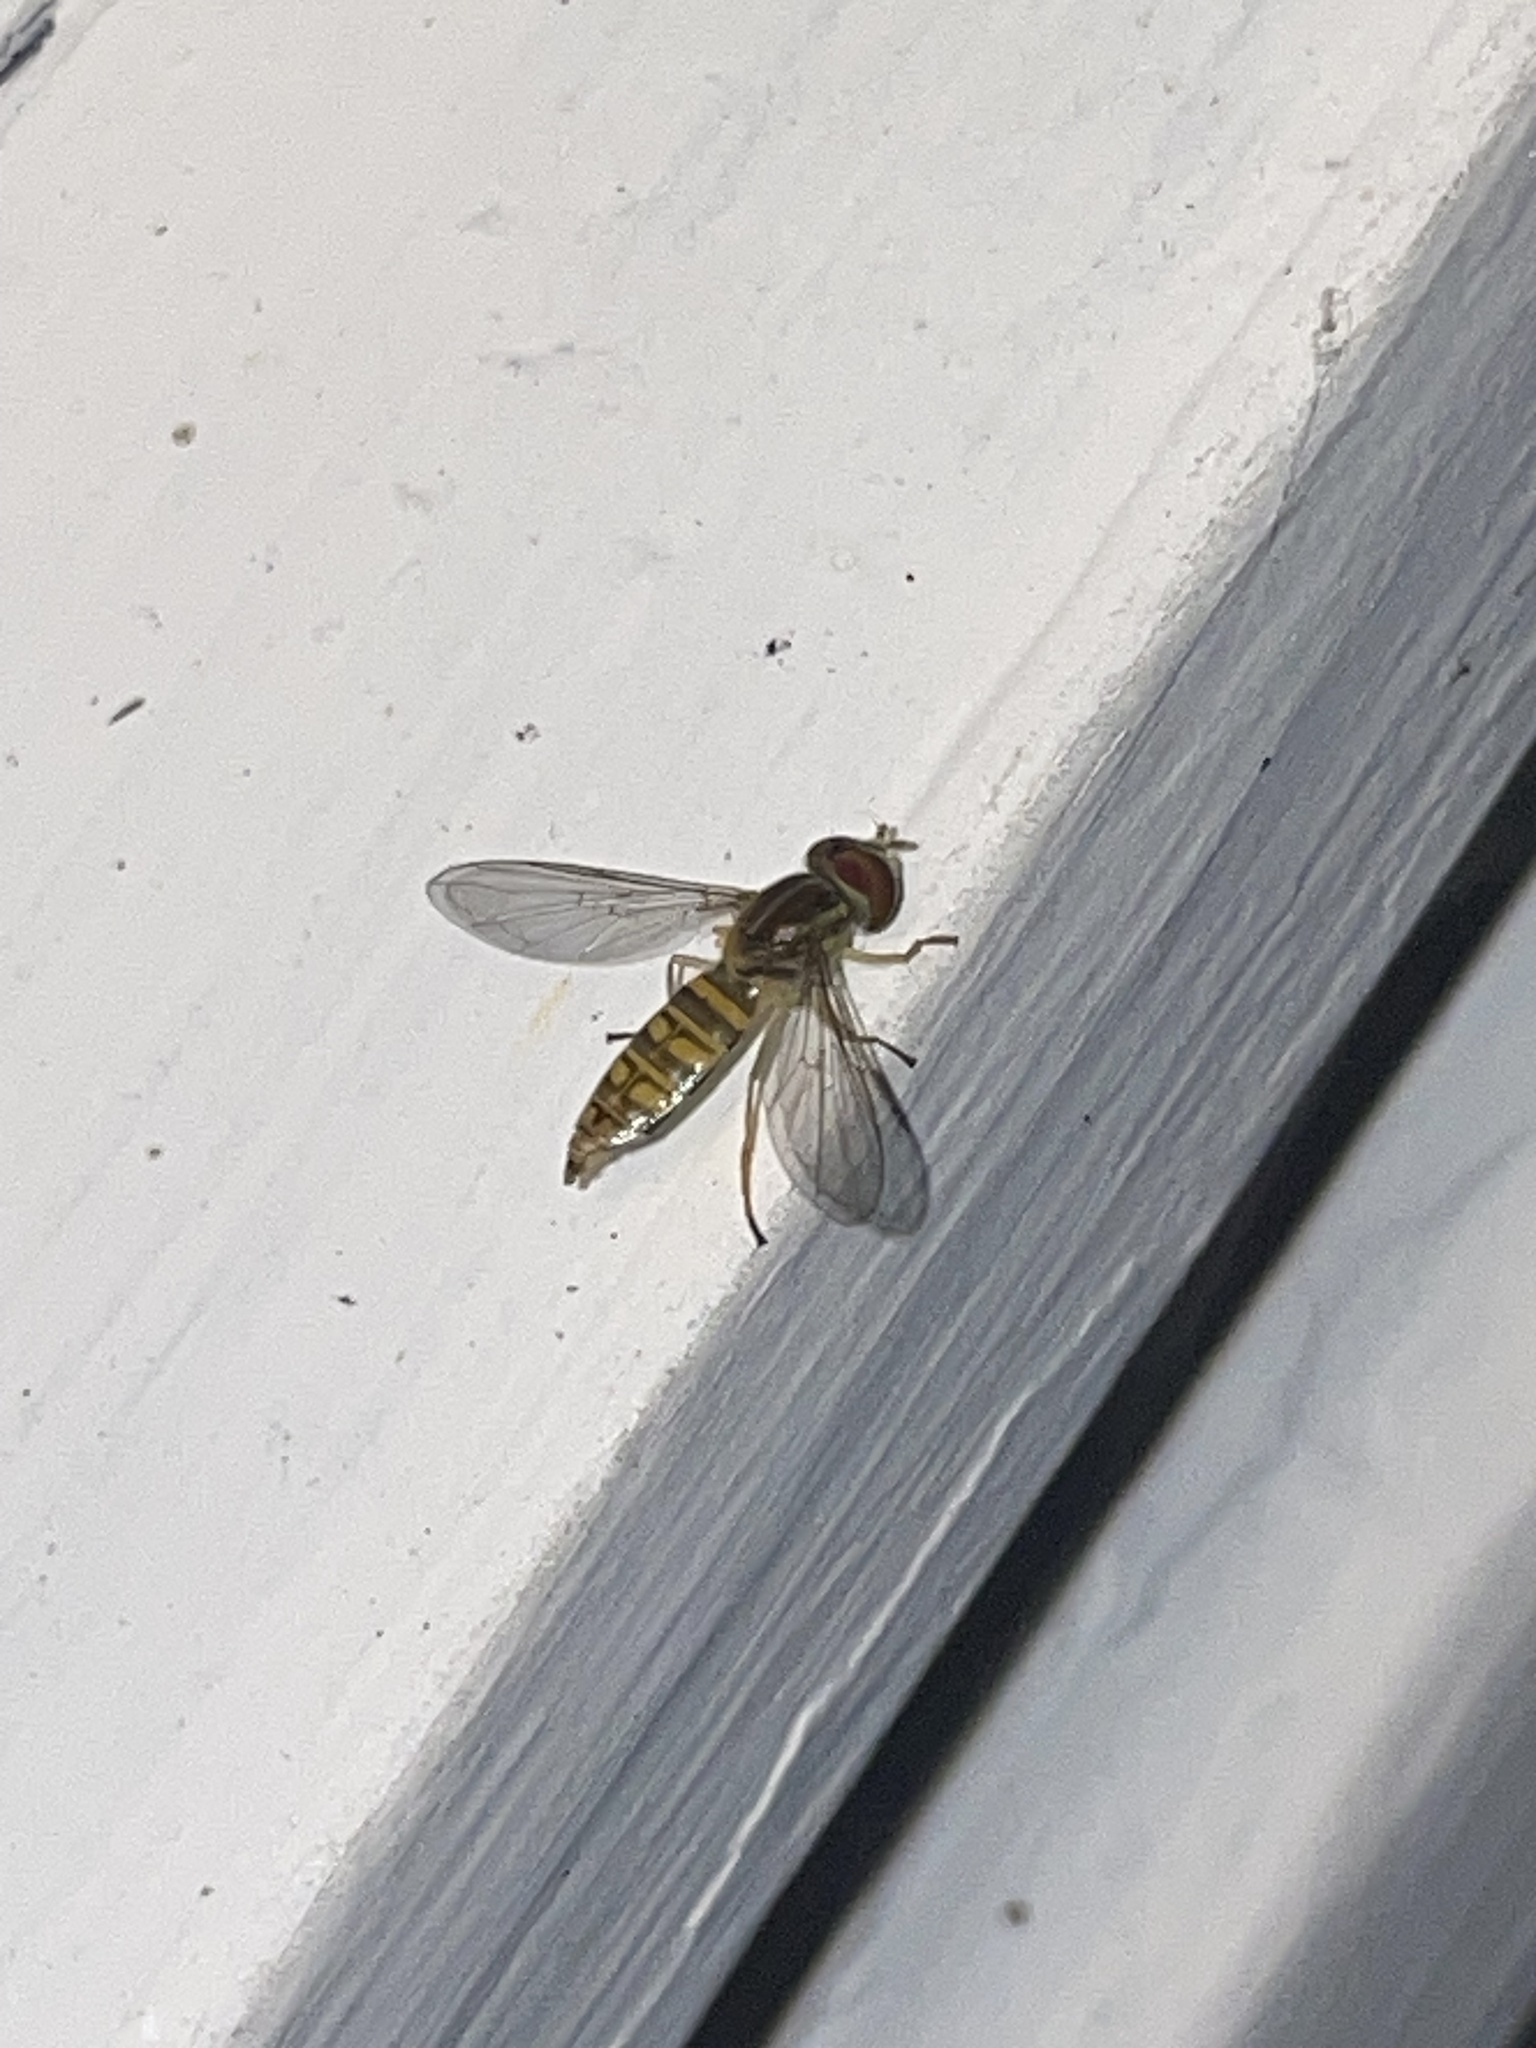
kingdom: Animalia
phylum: Arthropoda
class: Insecta
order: Diptera
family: Syrphidae
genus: Toxomerus
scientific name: Toxomerus politus
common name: Maize calligrapher
